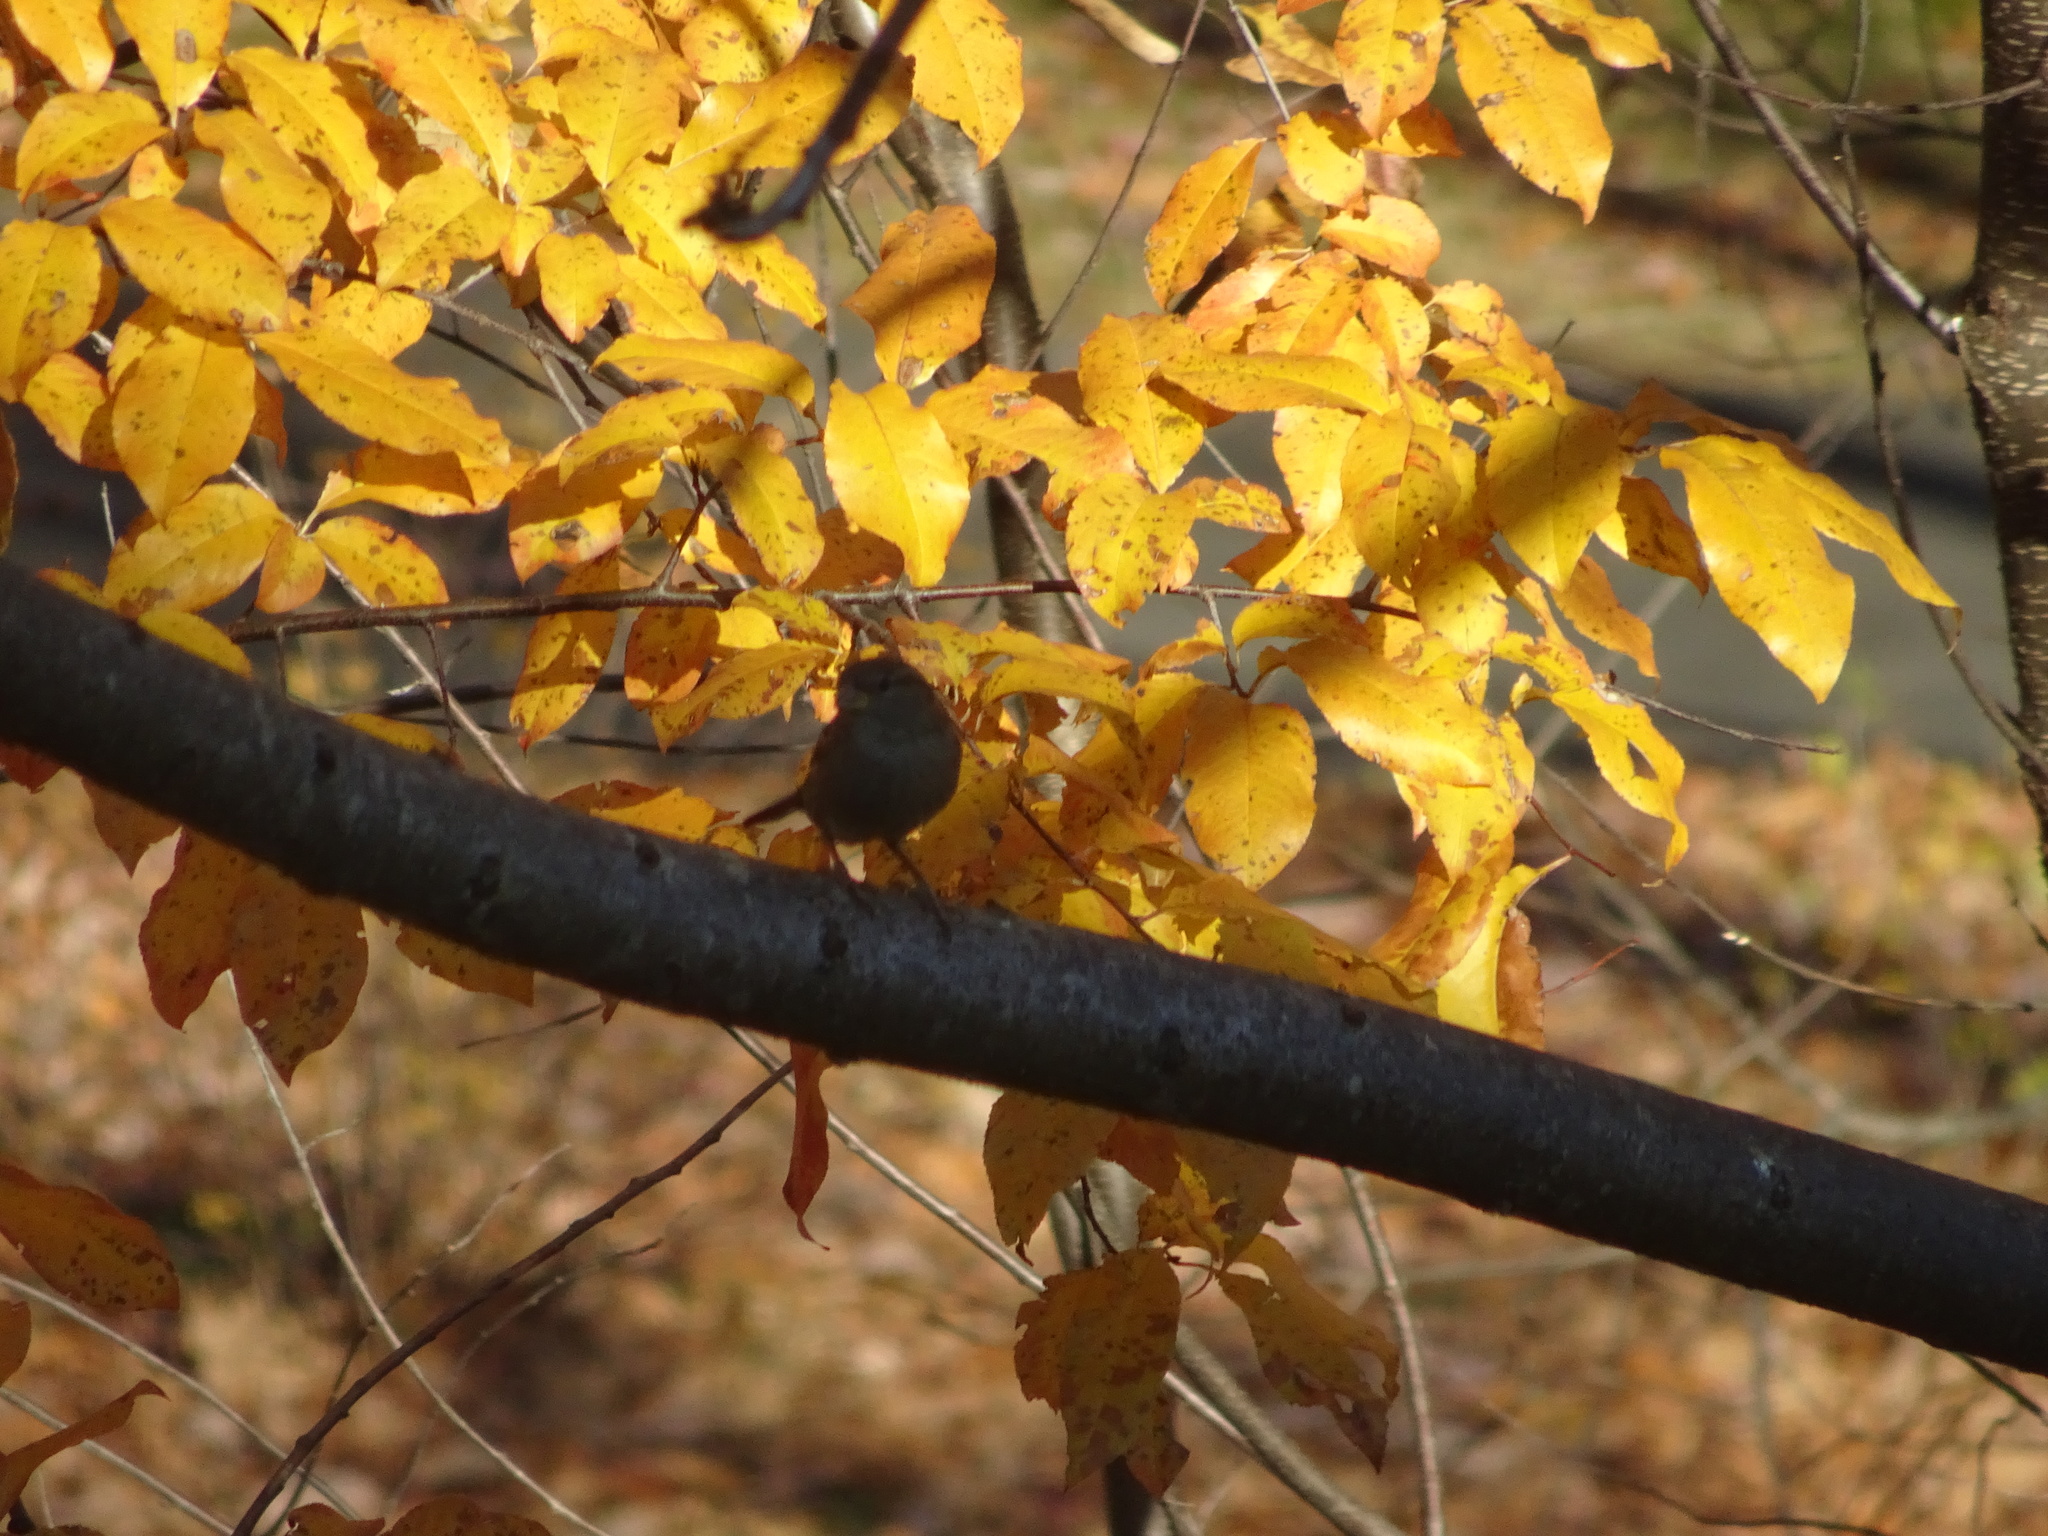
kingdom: Animalia
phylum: Chordata
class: Aves
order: Passeriformes
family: Passeridae
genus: Passer
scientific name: Passer domesticus
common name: House sparrow
